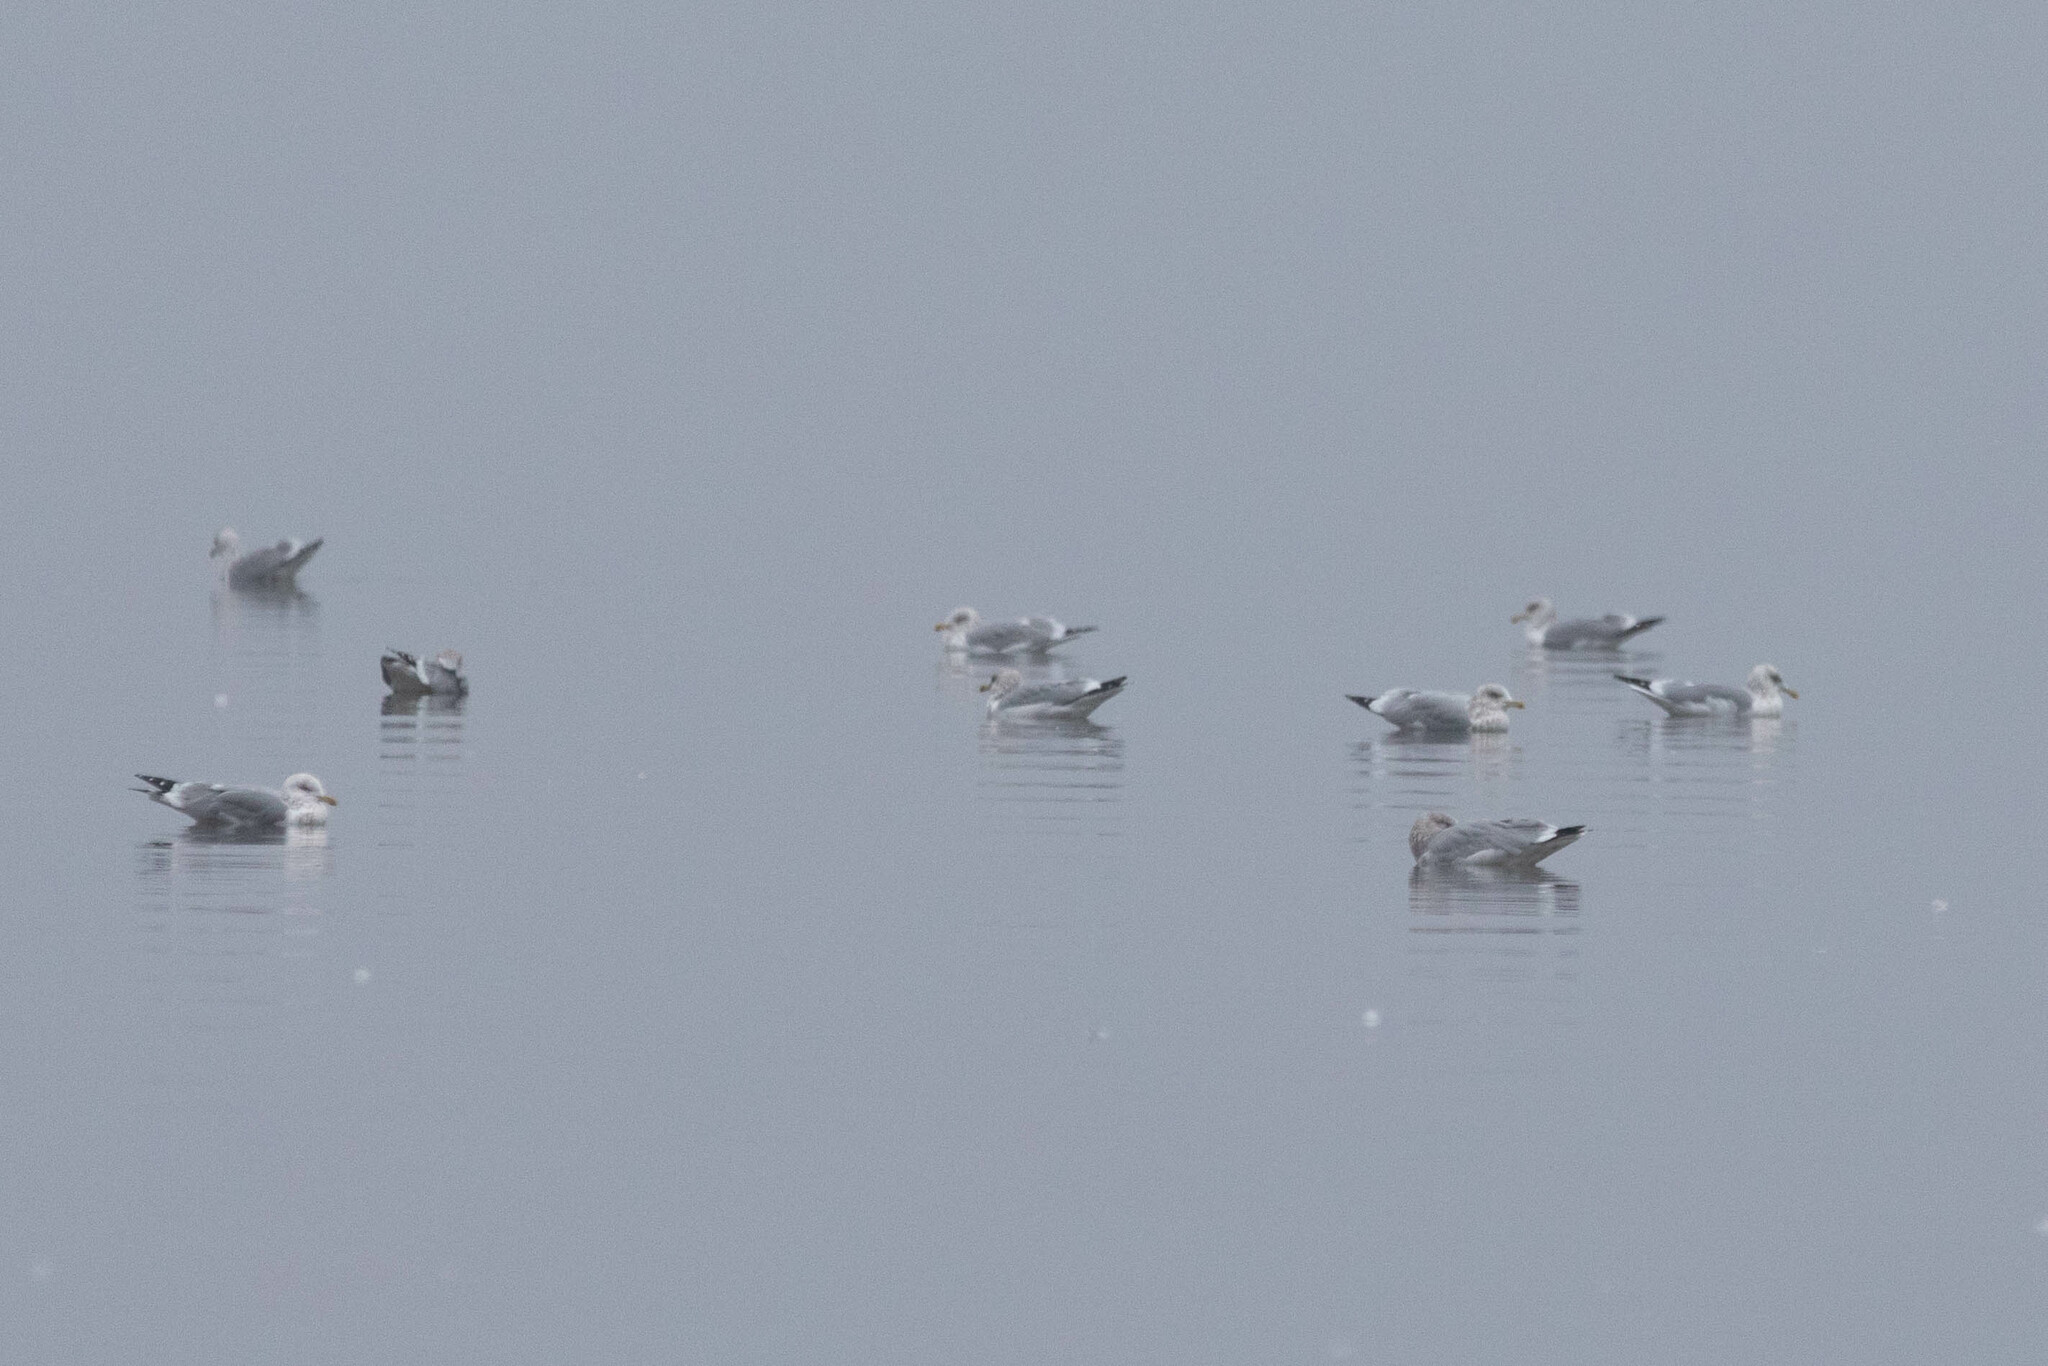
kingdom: Animalia
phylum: Chordata
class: Aves
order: Charadriiformes
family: Laridae
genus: Larus
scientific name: Larus glaucoides
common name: Iceland gull
